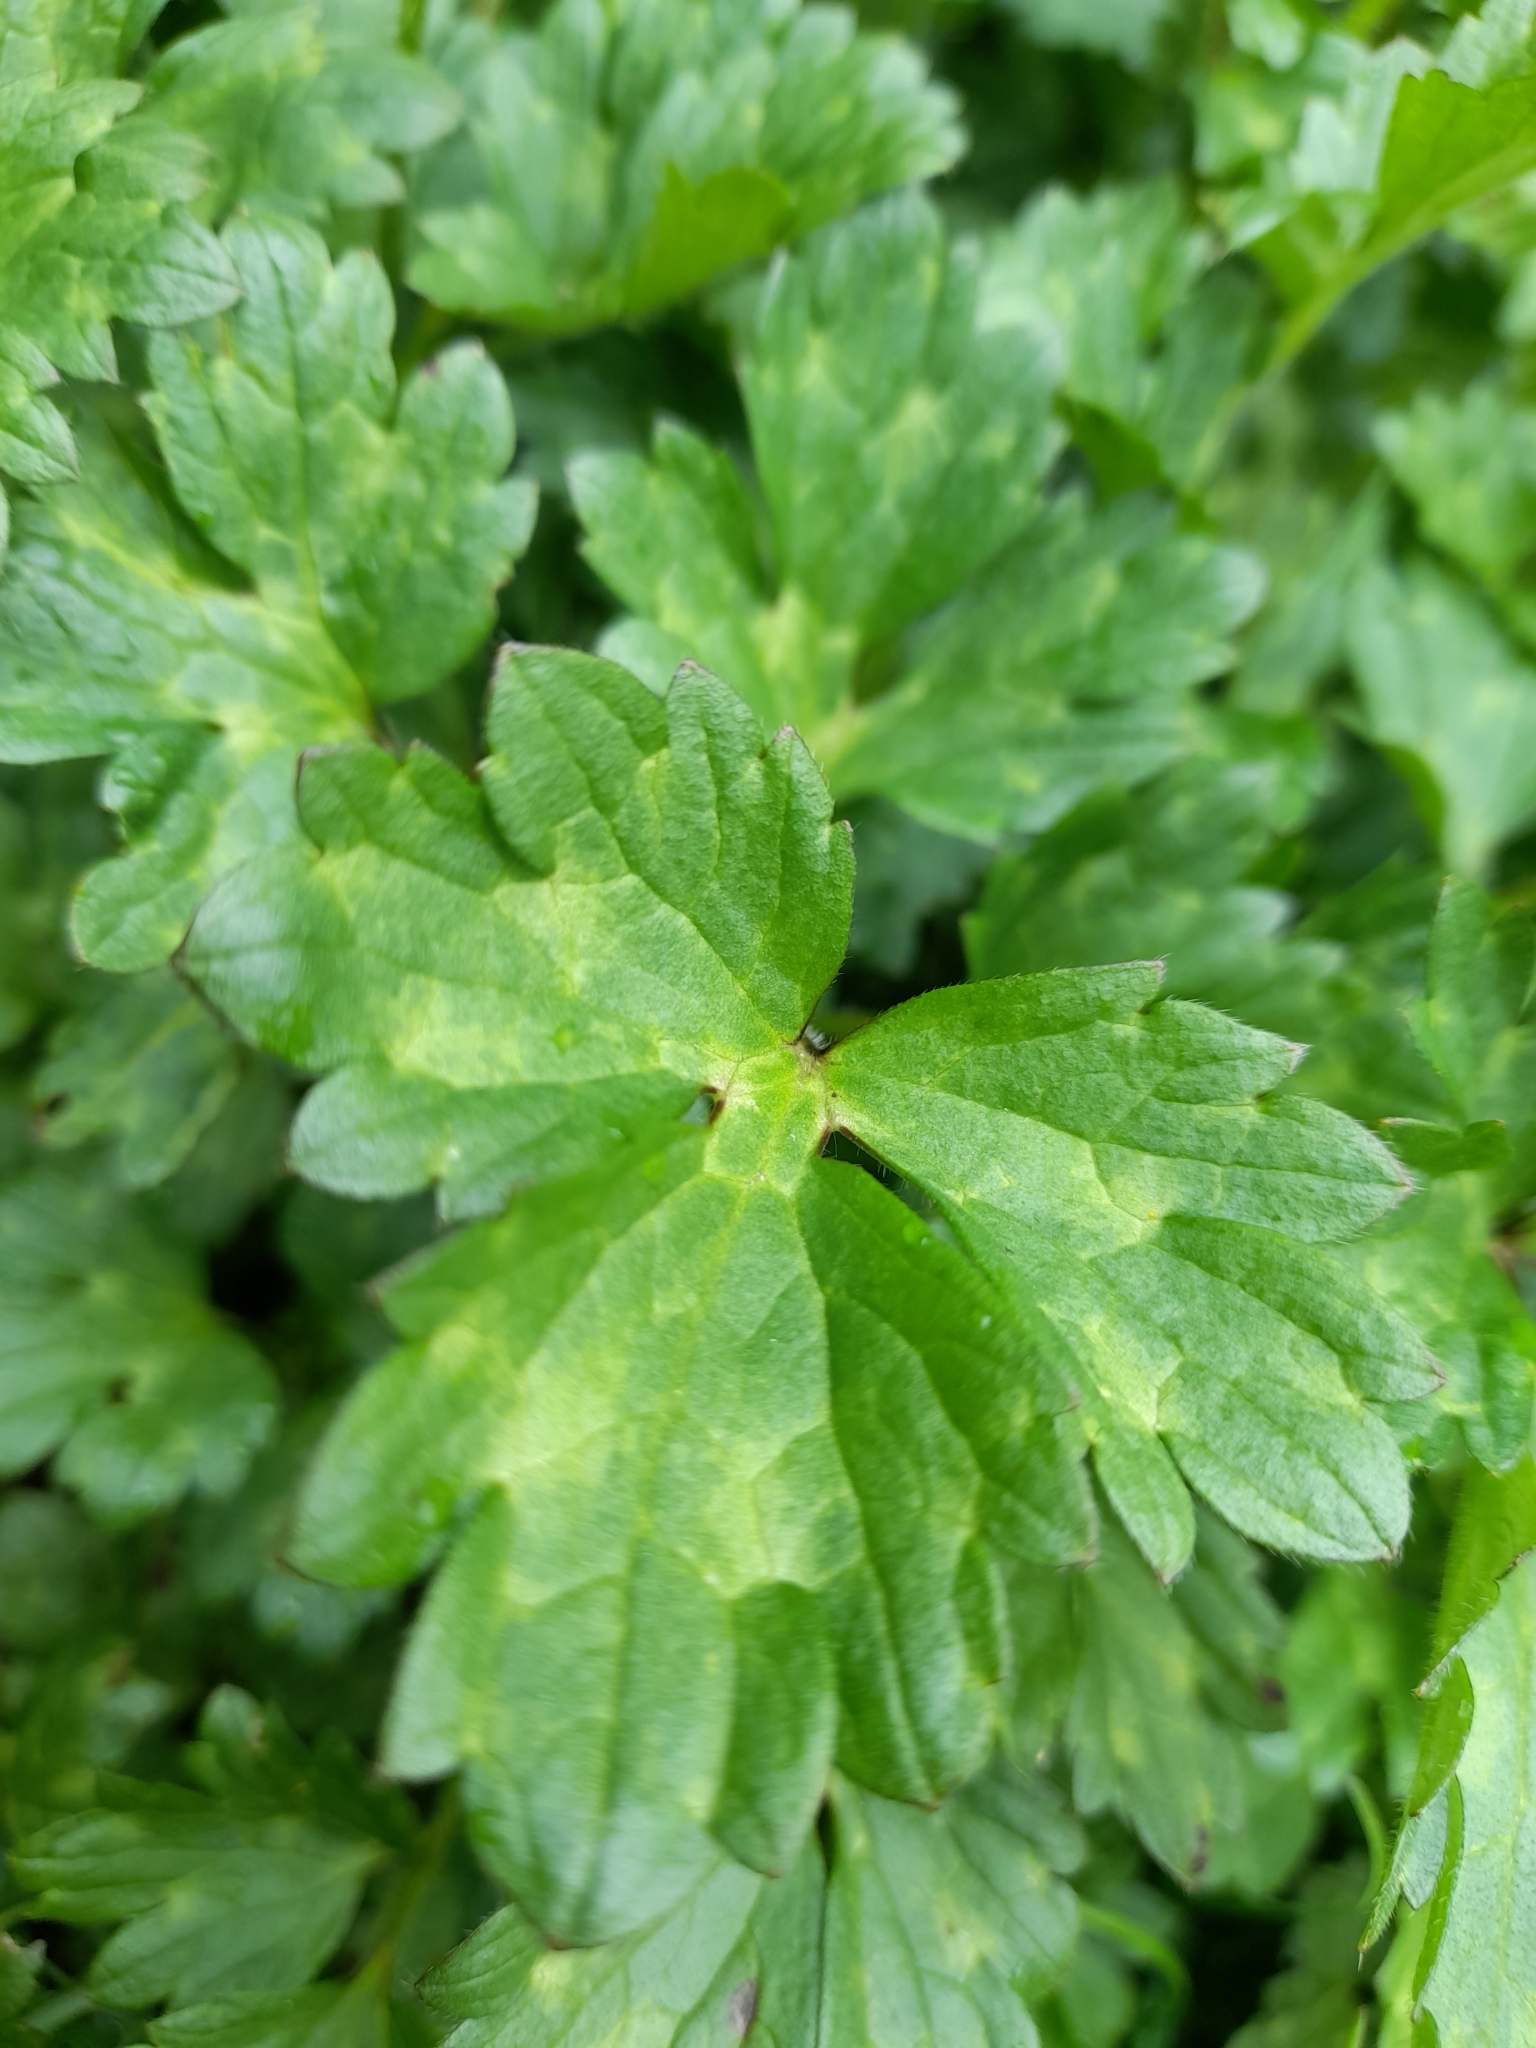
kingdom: Plantae
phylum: Tracheophyta
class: Magnoliopsida
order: Ranunculales
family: Ranunculaceae
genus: Ranunculus
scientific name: Ranunculus repens
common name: Creeping buttercup
